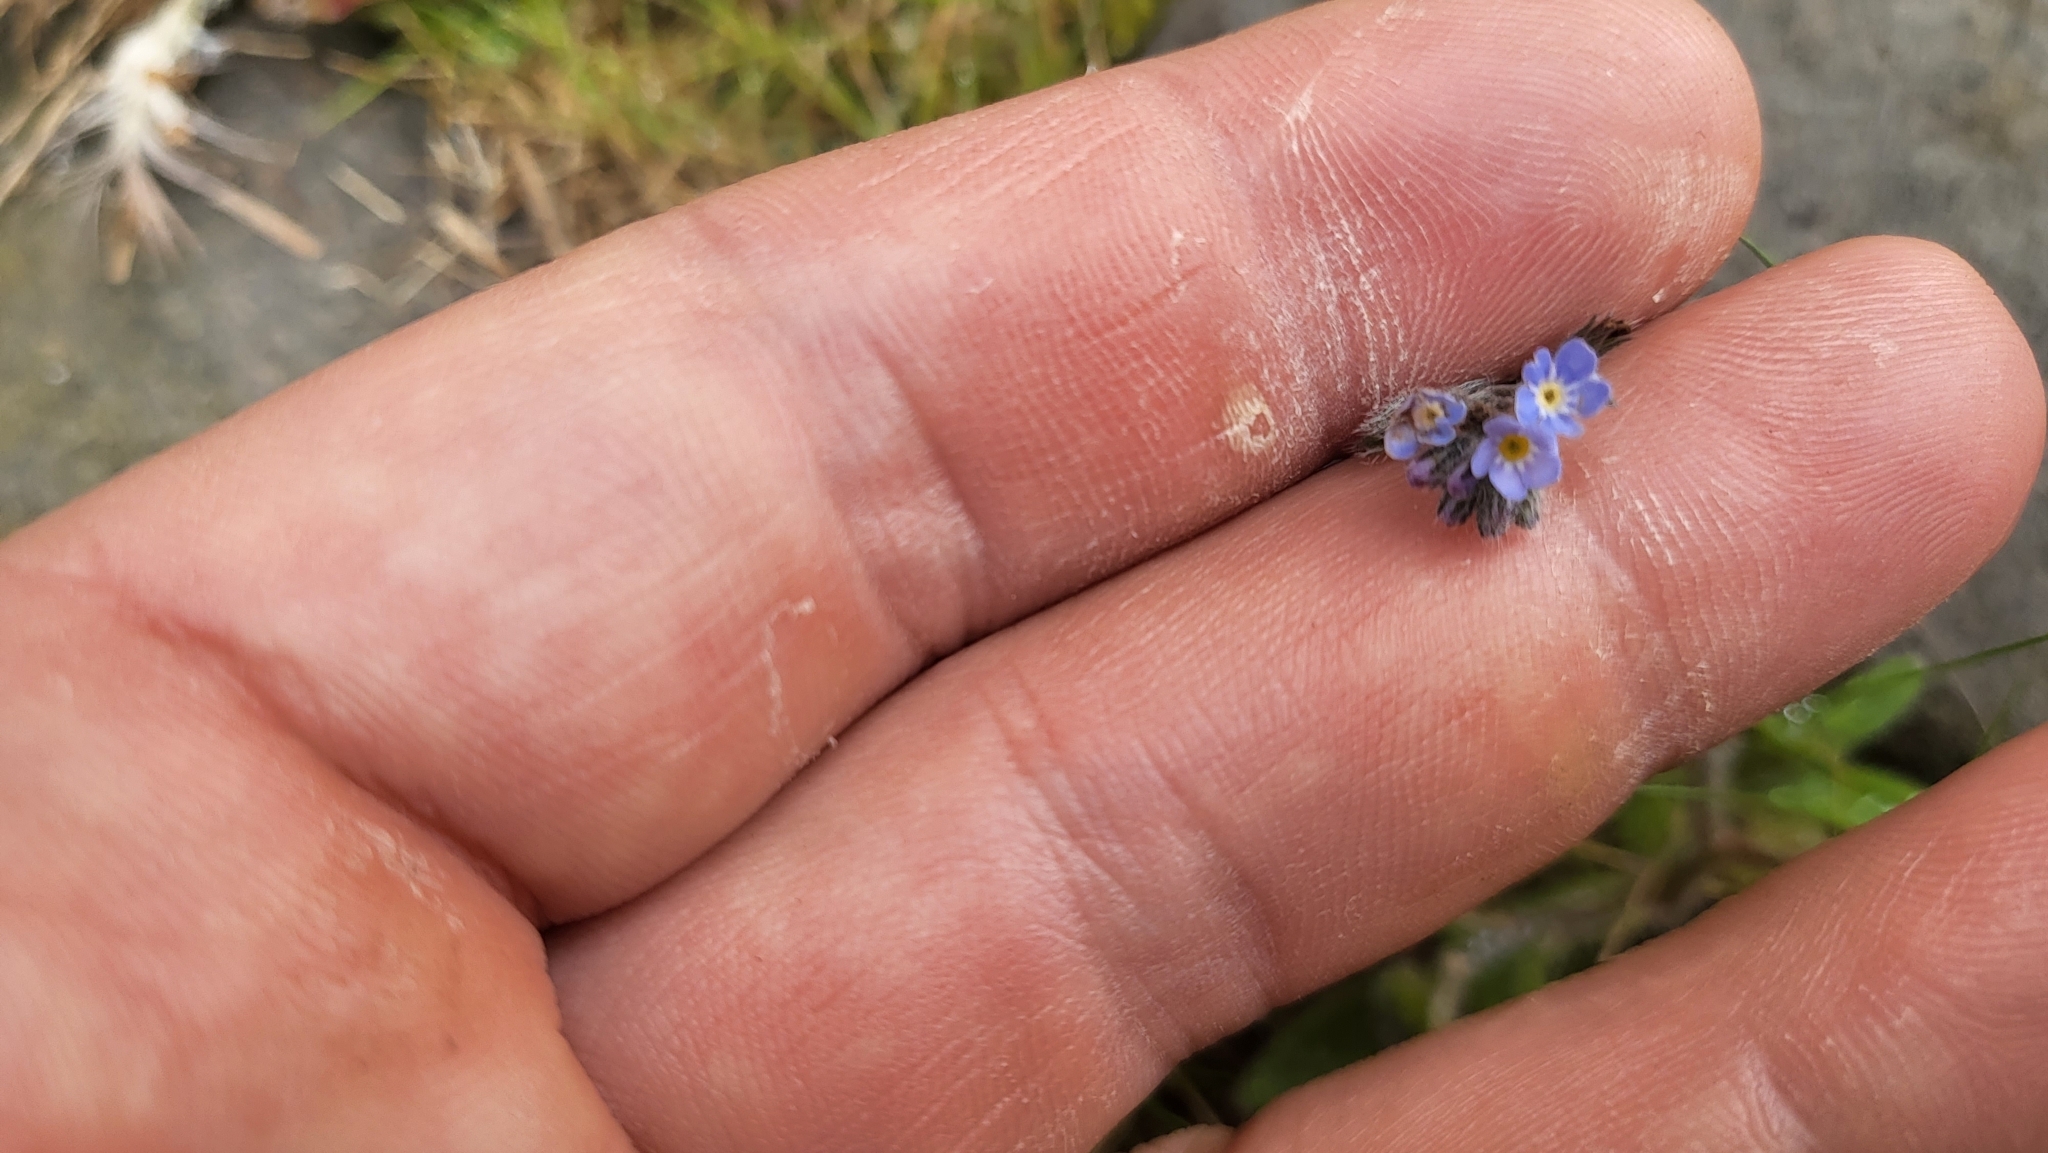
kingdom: Plantae
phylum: Tracheophyta
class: Magnoliopsida
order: Boraginales
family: Boraginaceae
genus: Myosotis
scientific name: Myosotis arvensis
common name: Field forget-me-not
